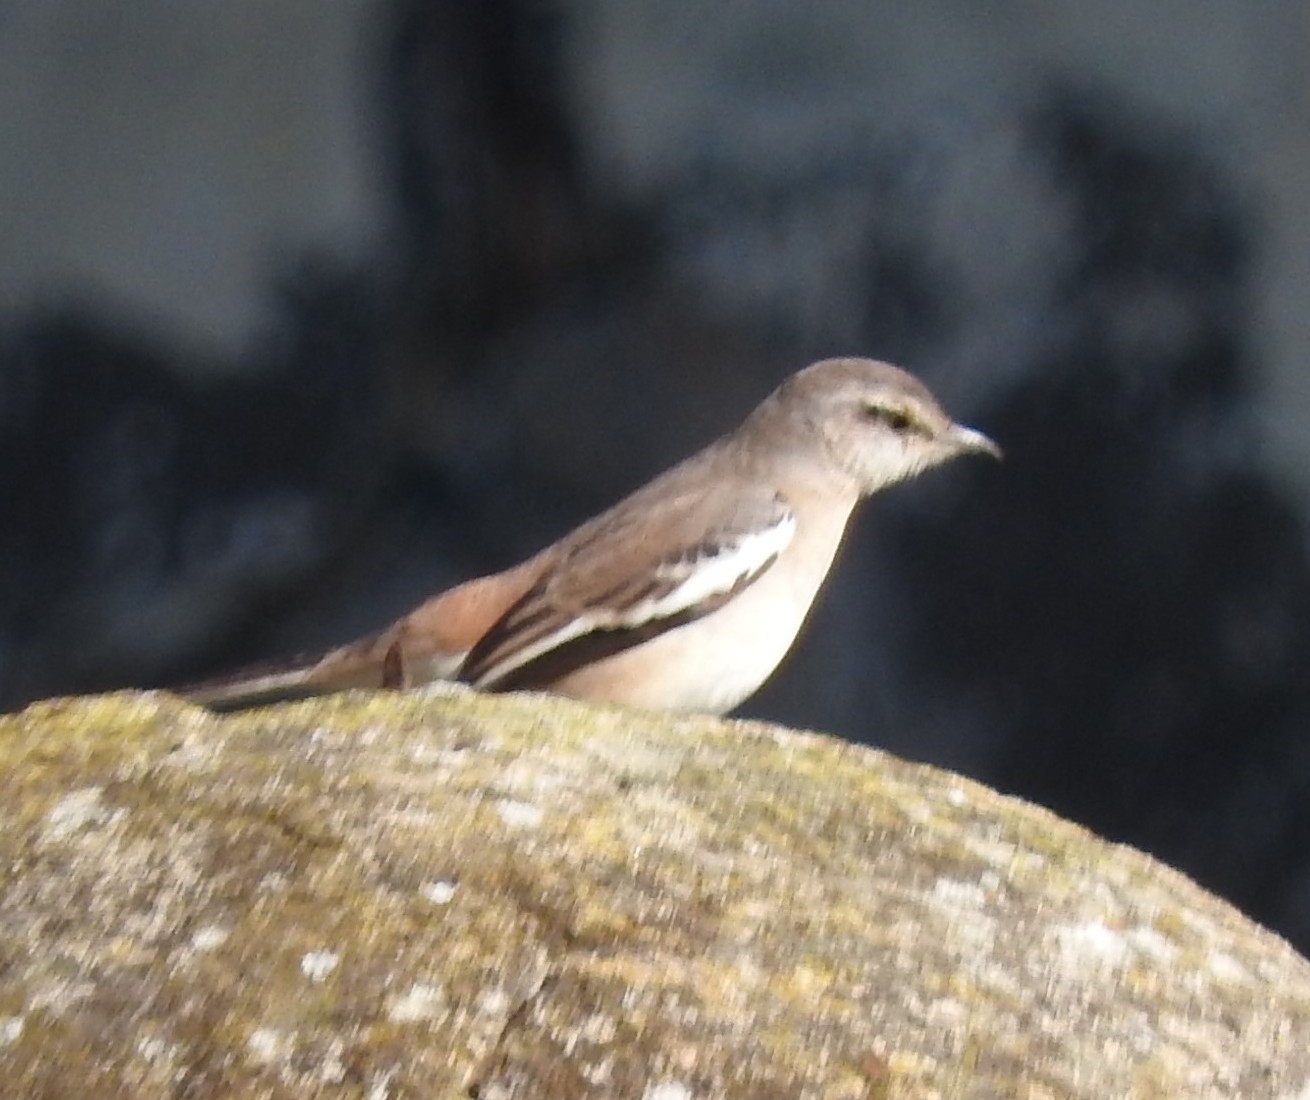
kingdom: Animalia
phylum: Chordata
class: Aves
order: Passeriformes
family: Mimidae
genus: Mimus
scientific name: Mimus triurus
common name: White-banded mockingbird
